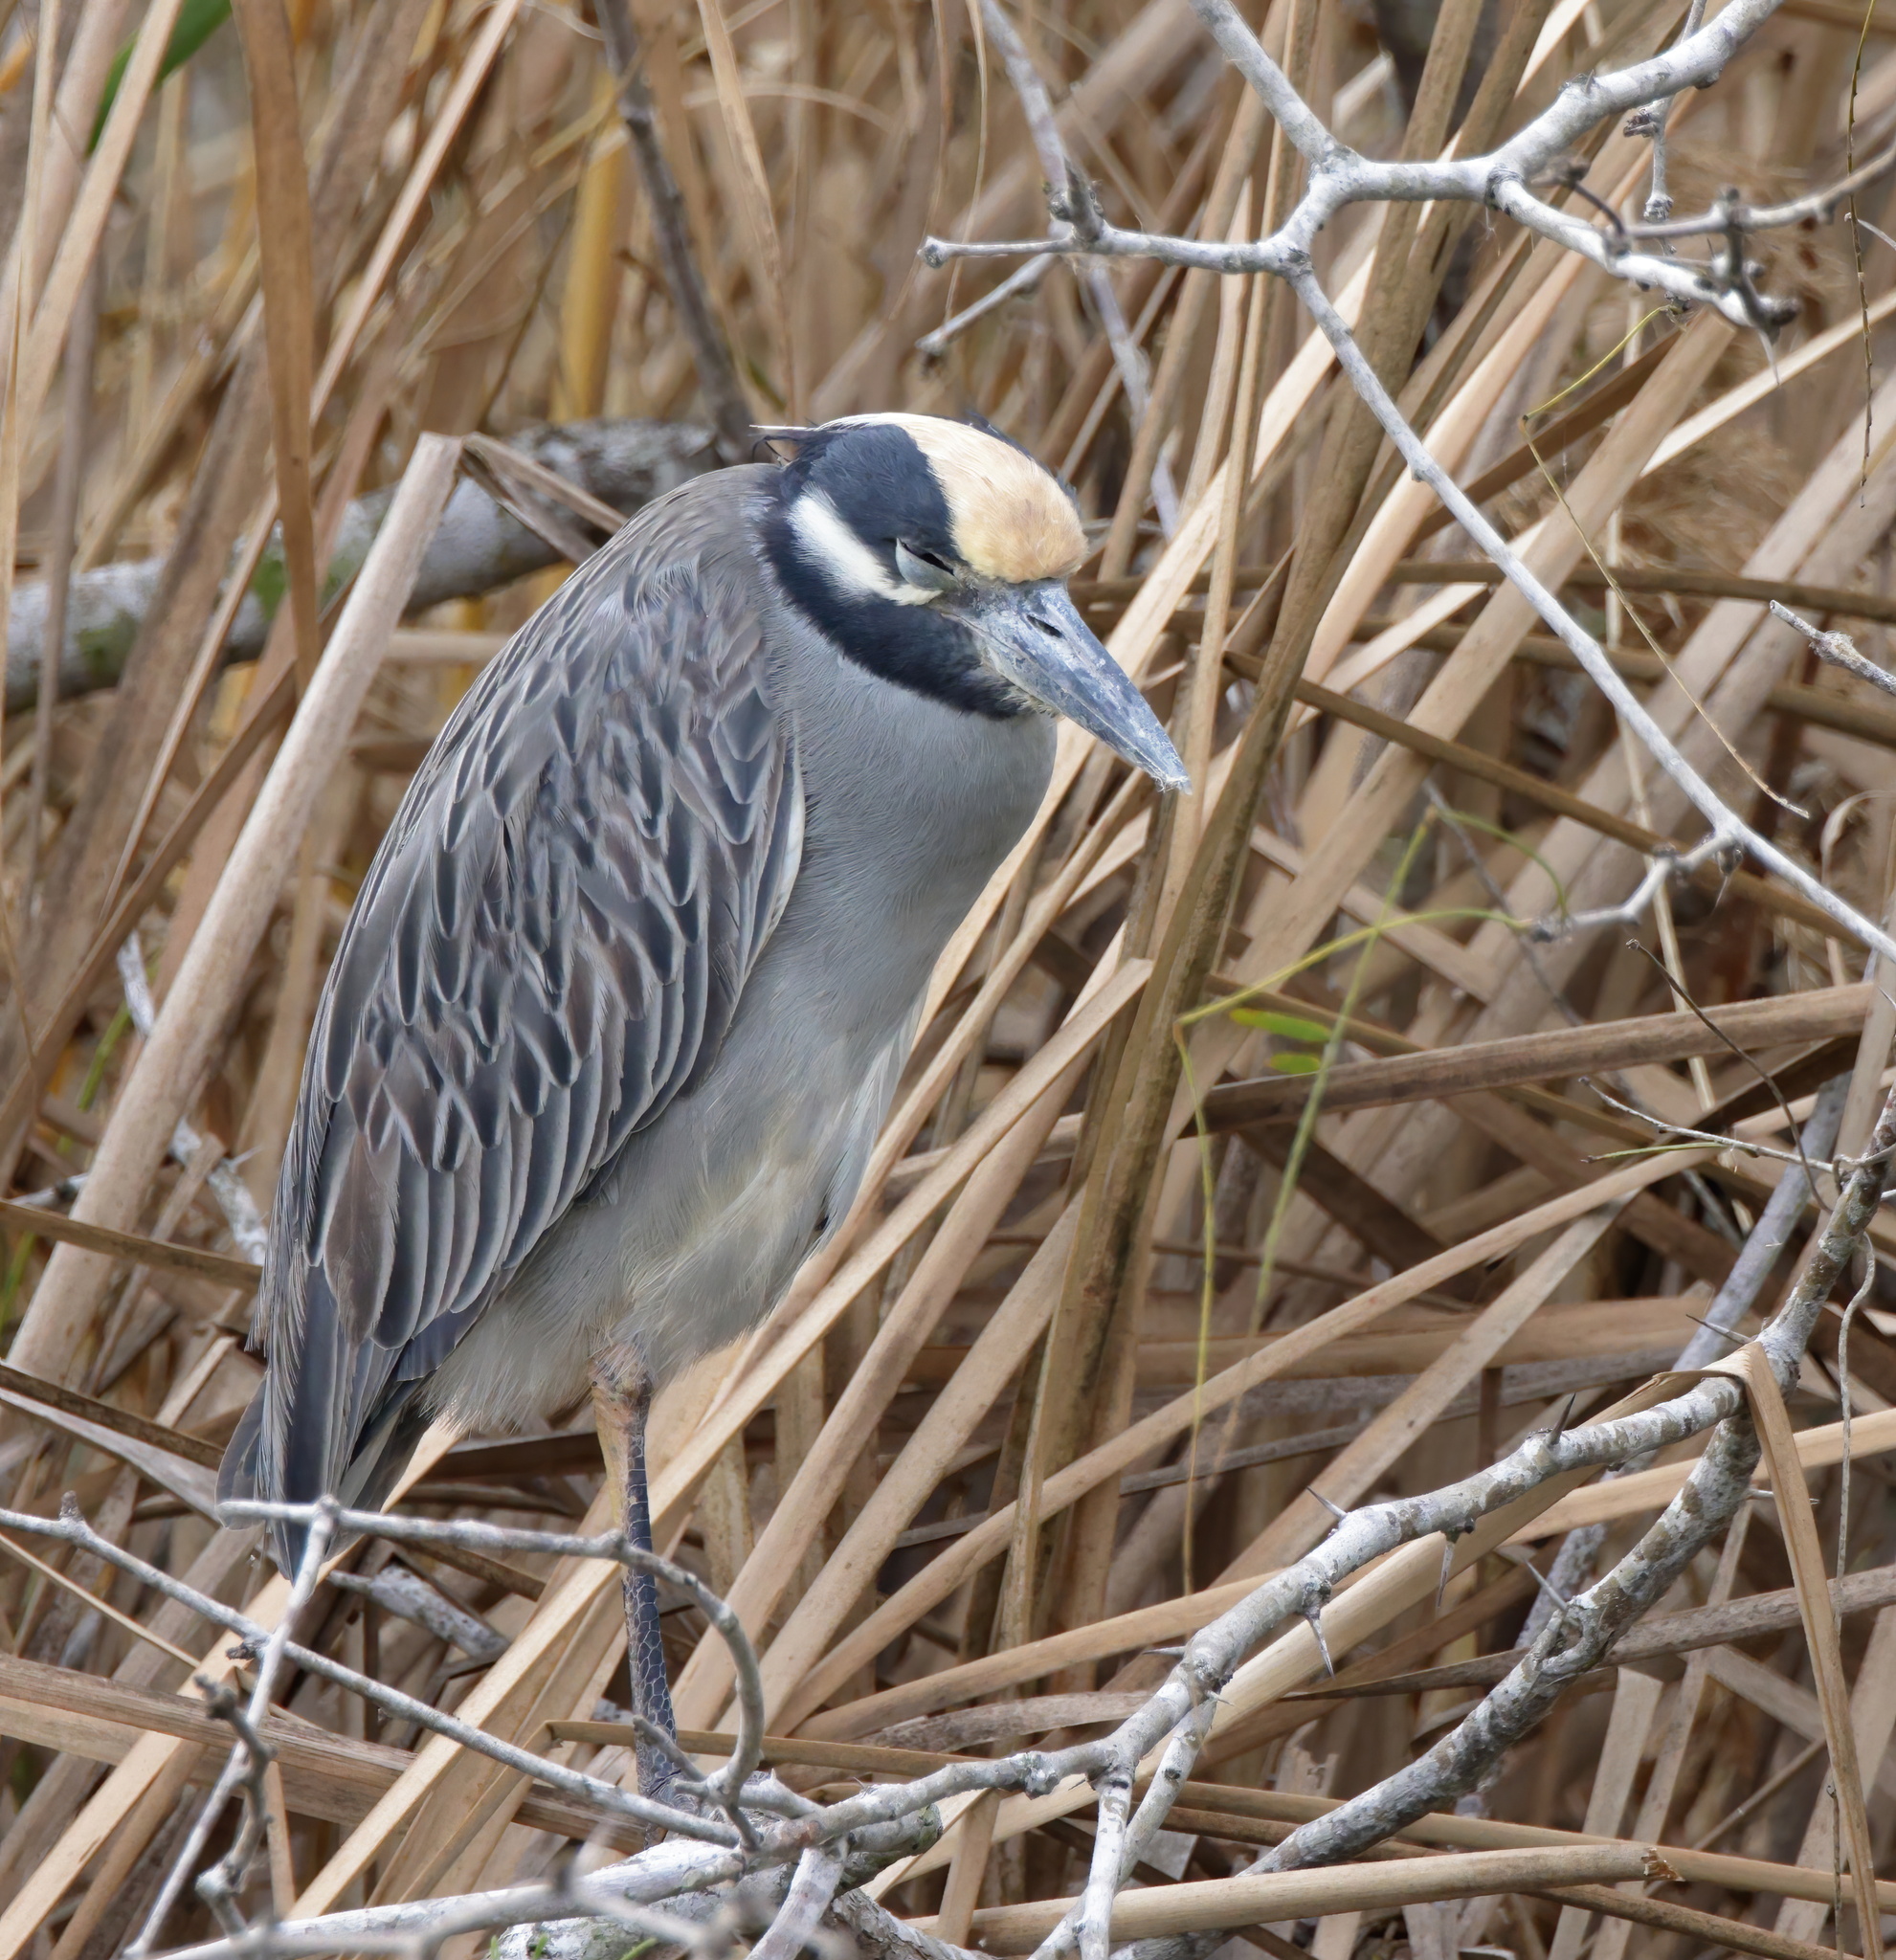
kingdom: Animalia
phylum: Chordata
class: Aves
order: Pelecaniformes
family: Ardeidae
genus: Nyctanassa
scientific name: Nyctanassa violacea
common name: Yellow-crowned night heron
